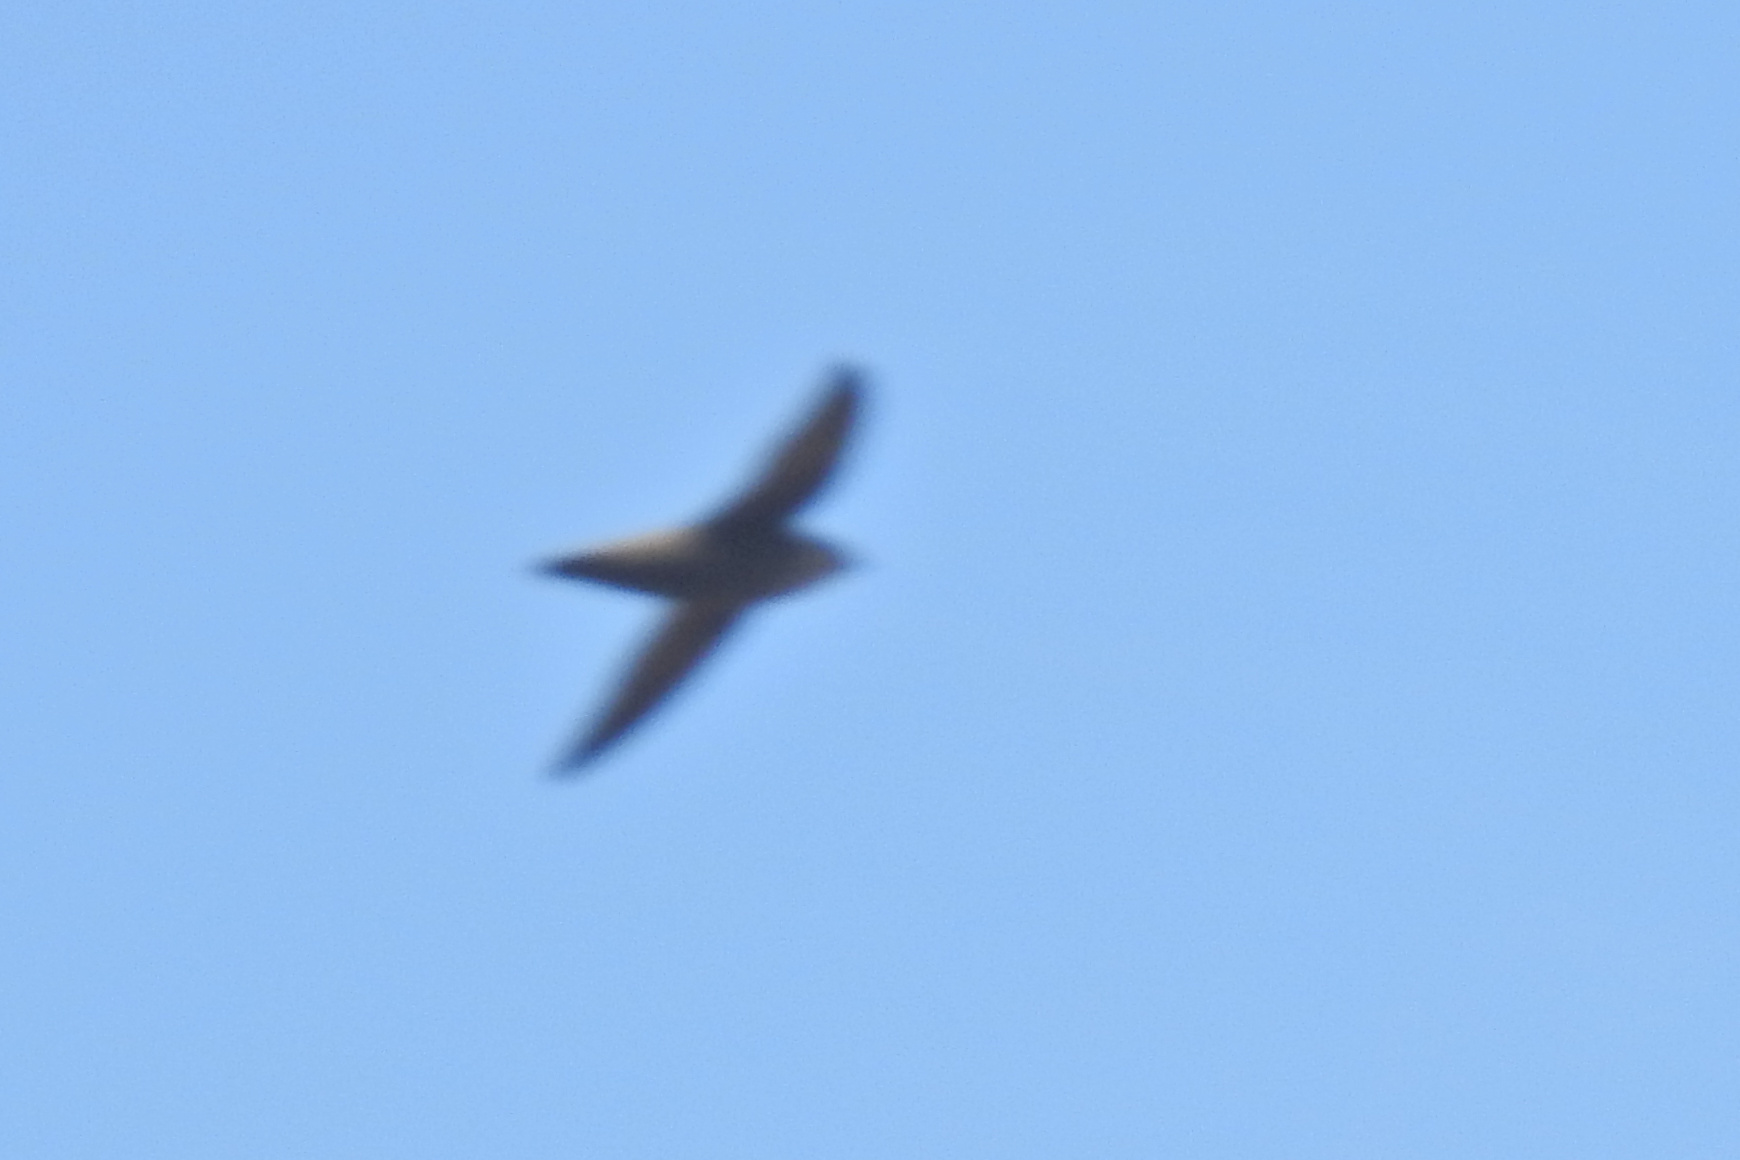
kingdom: Animalia
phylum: Chordata
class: Aves
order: Apodiformes
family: Apodidae
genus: Chaetura
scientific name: Chaetura pelagica
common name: Chimney swift
